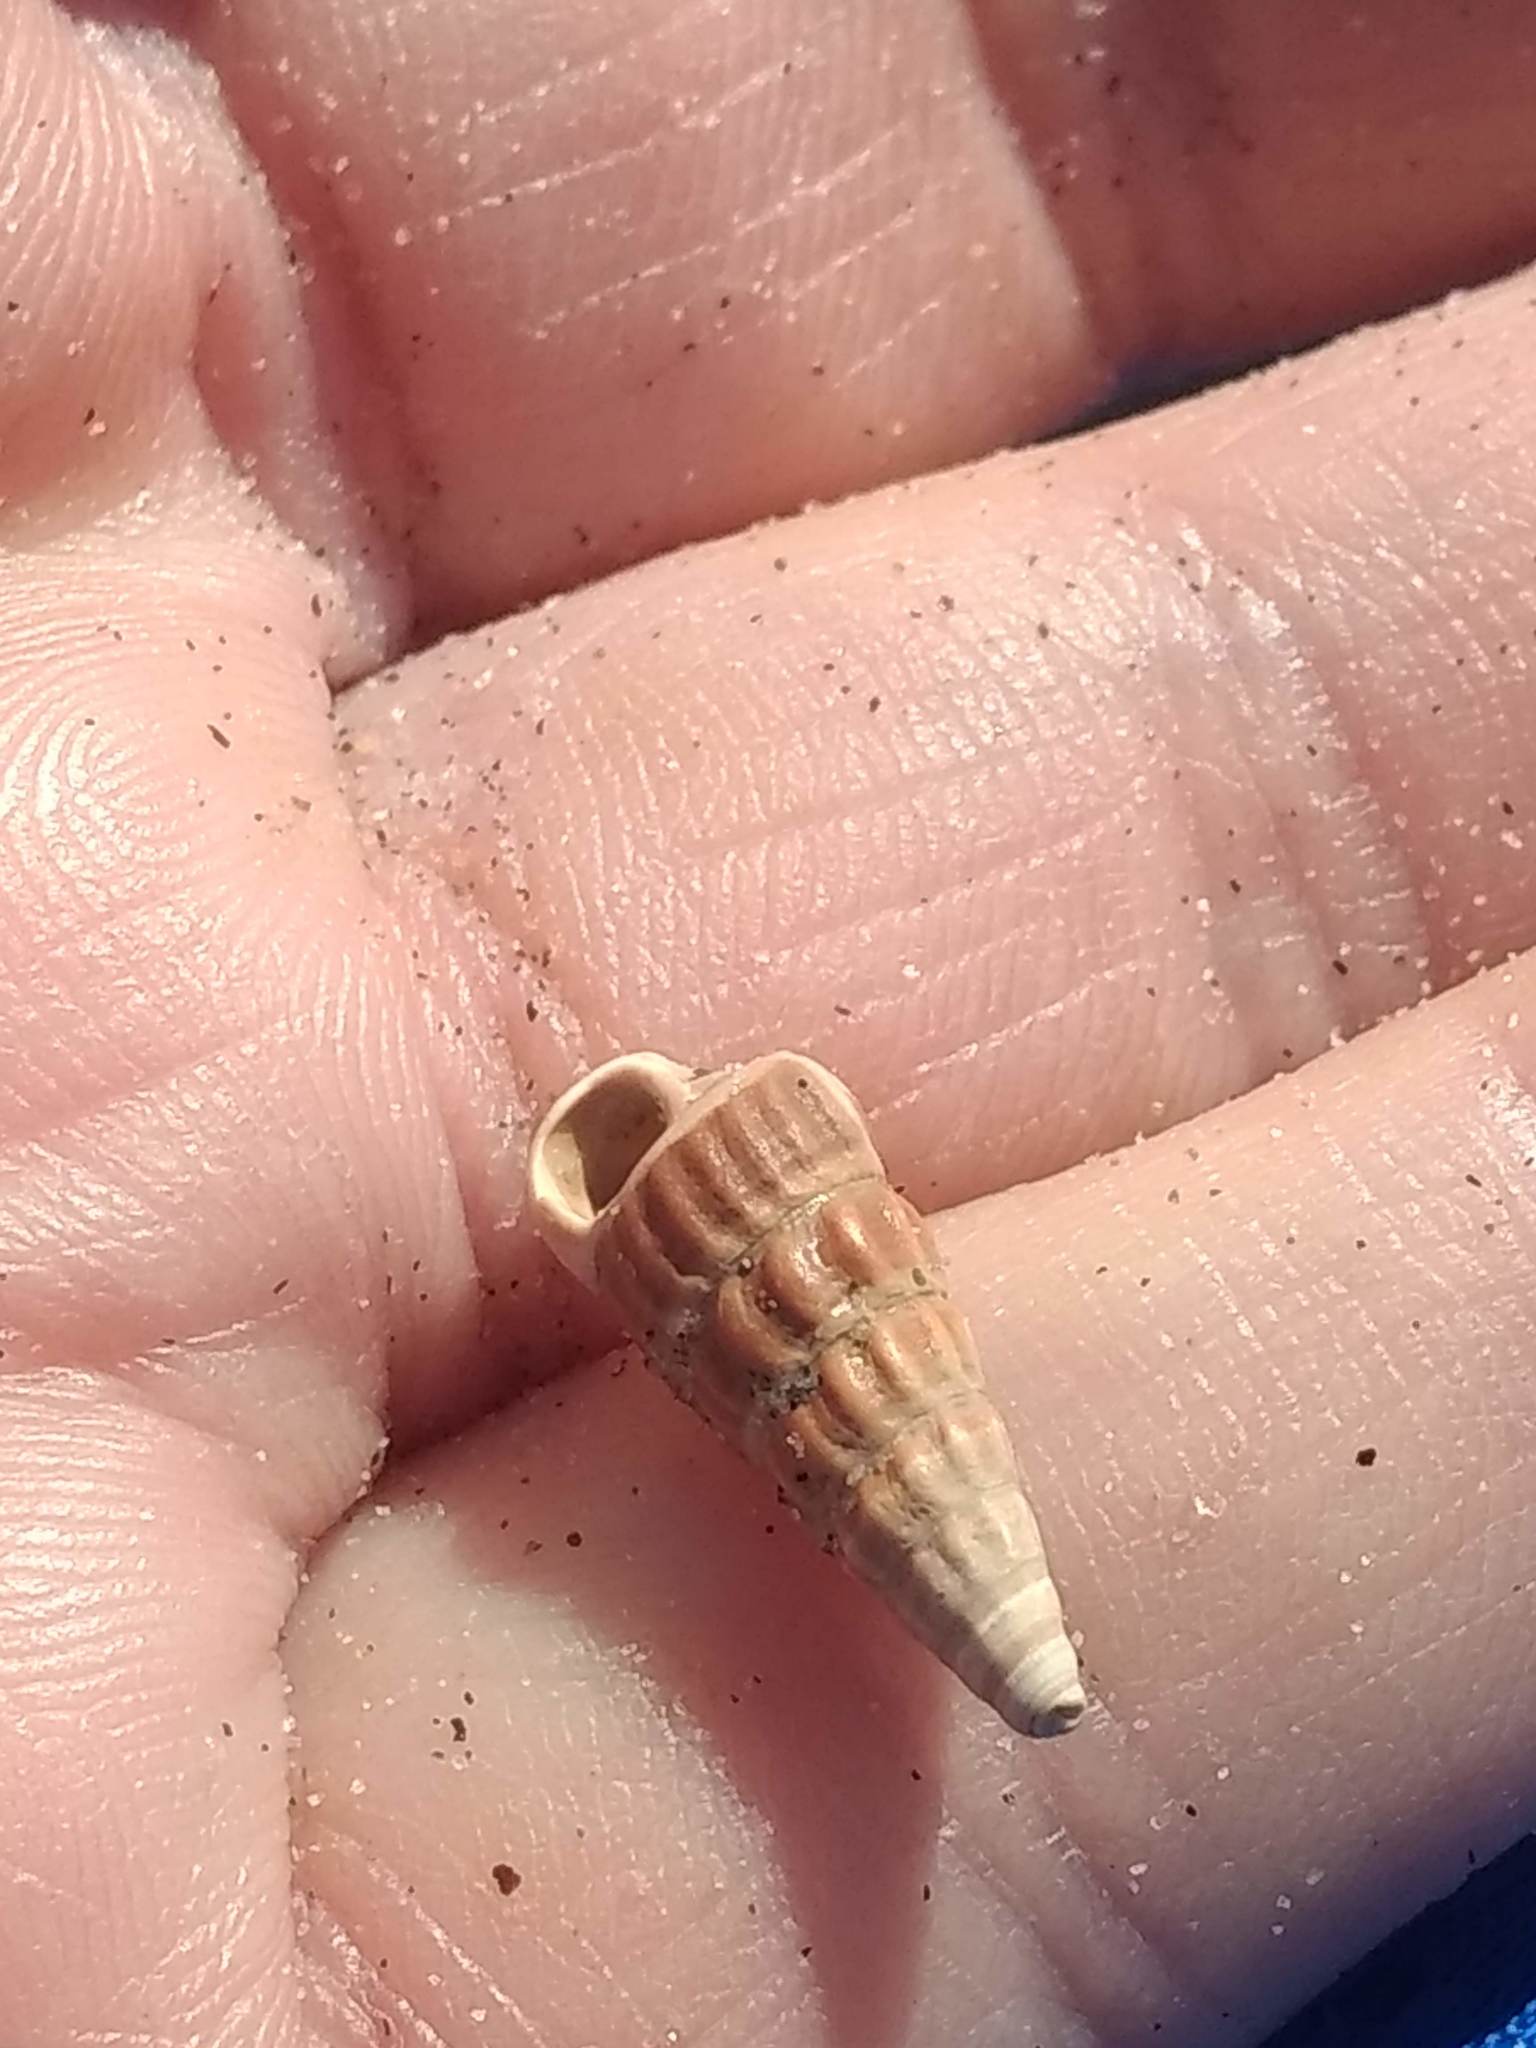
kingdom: Animalia
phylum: Mollusca
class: Gastropoda
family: Potamididae
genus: Cerithideopsis
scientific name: Cerithideopsis californica
